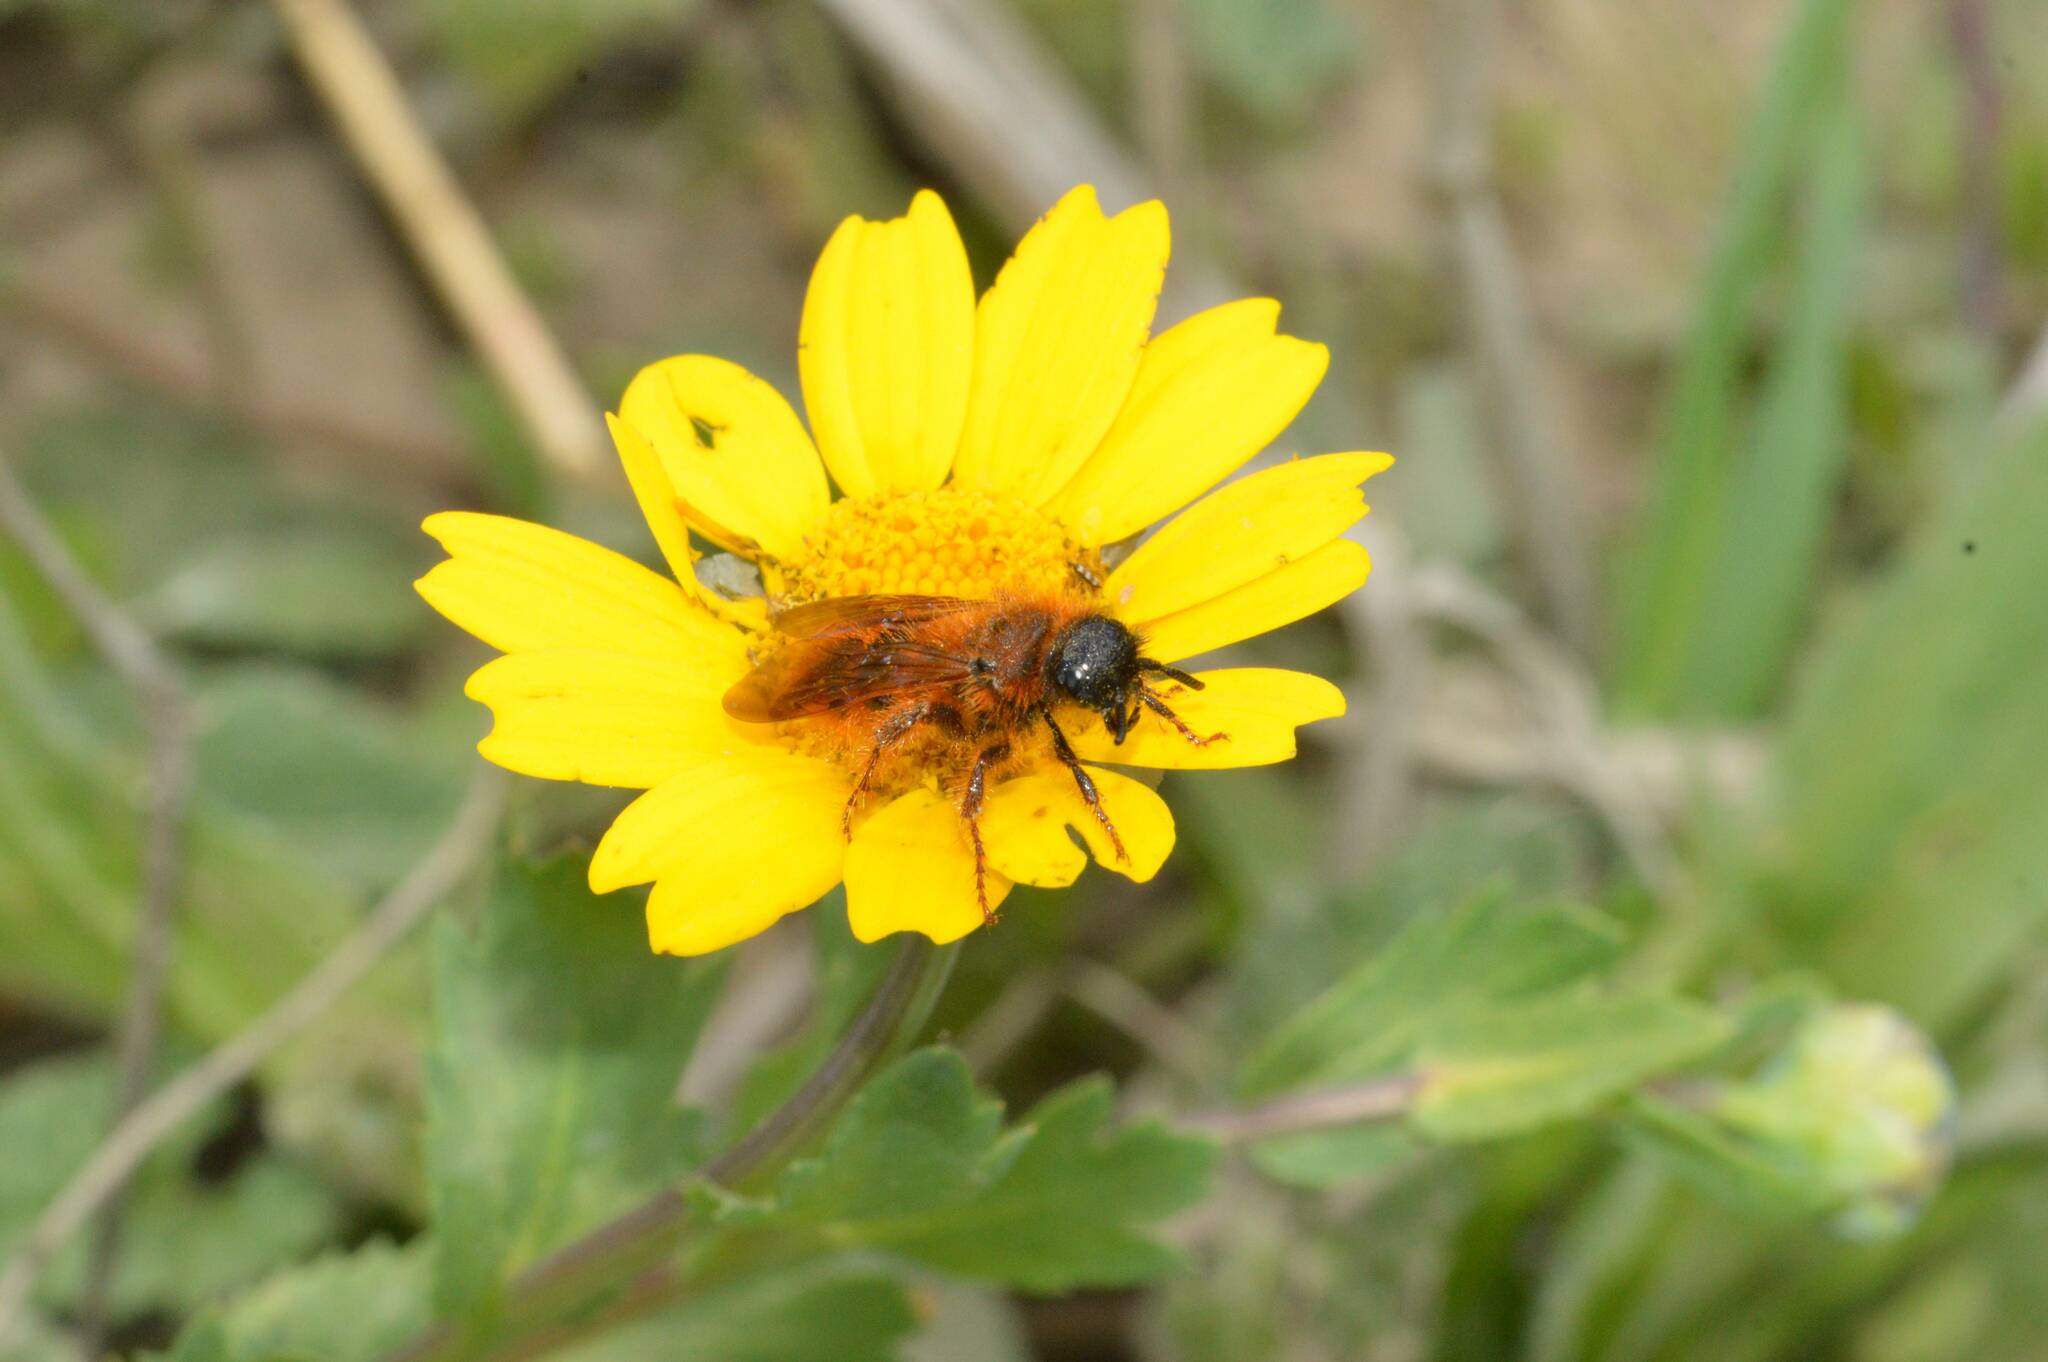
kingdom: Animalia
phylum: Arthropoda
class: Insecta
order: Hymenoptera
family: Scoliidae
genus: Dasyscolia
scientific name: Dasyscolia ciliata
